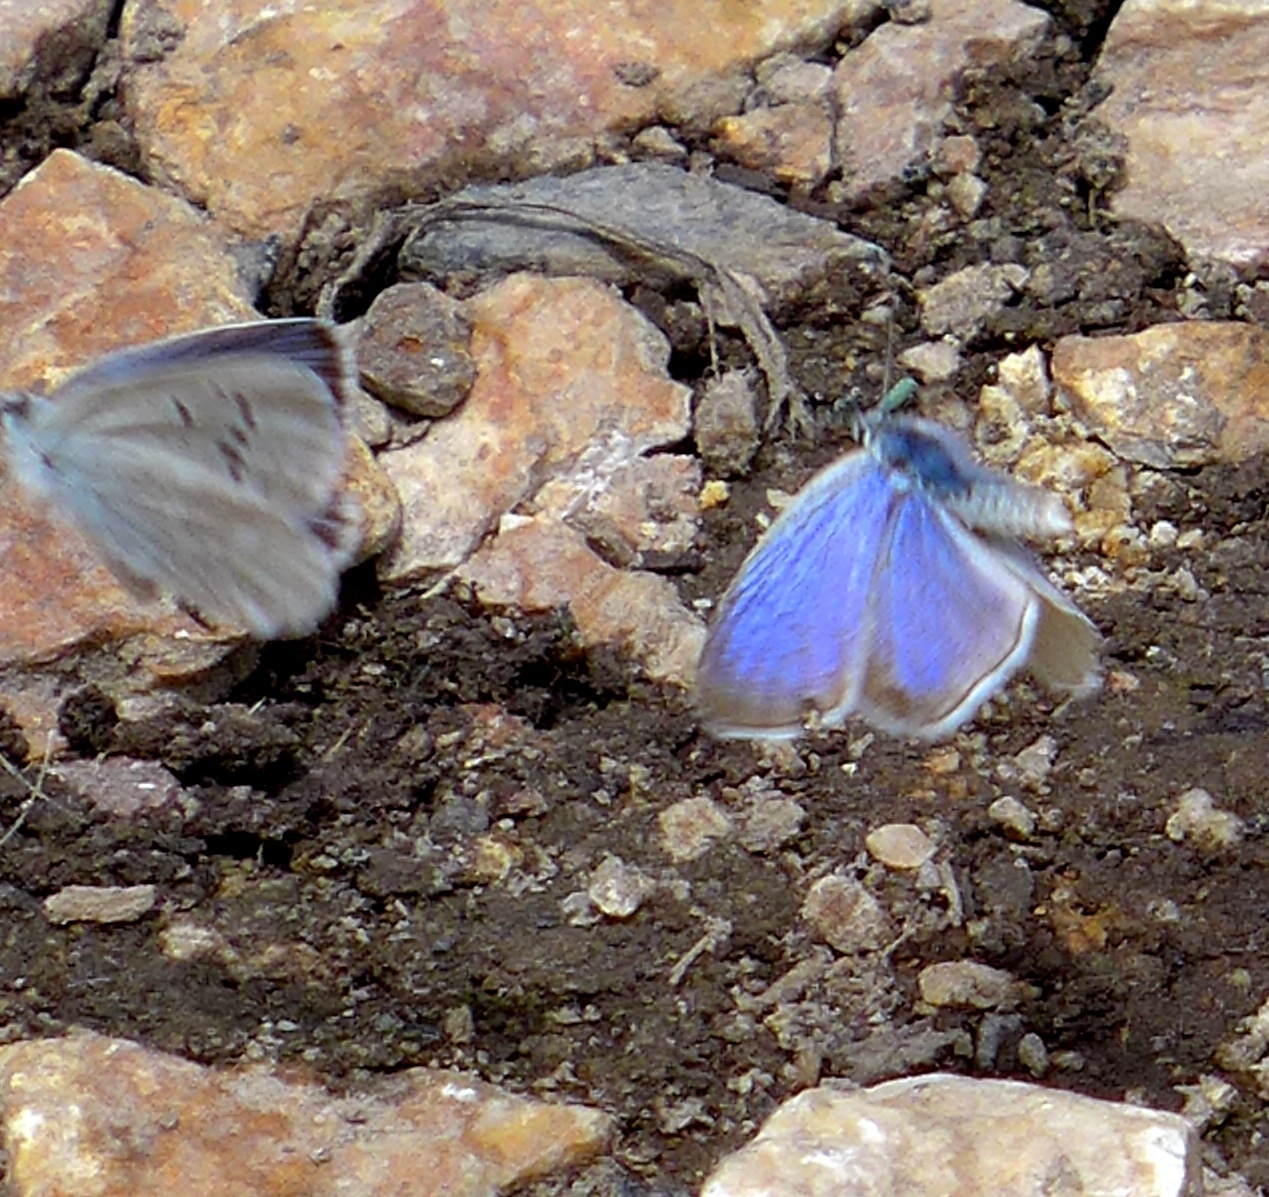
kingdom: Animalia
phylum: Arthropoda
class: Insecta
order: Lepidoptera
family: Lycaenidae
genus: Icaricia
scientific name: Icaricia icarioides
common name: Boisduval's blue
